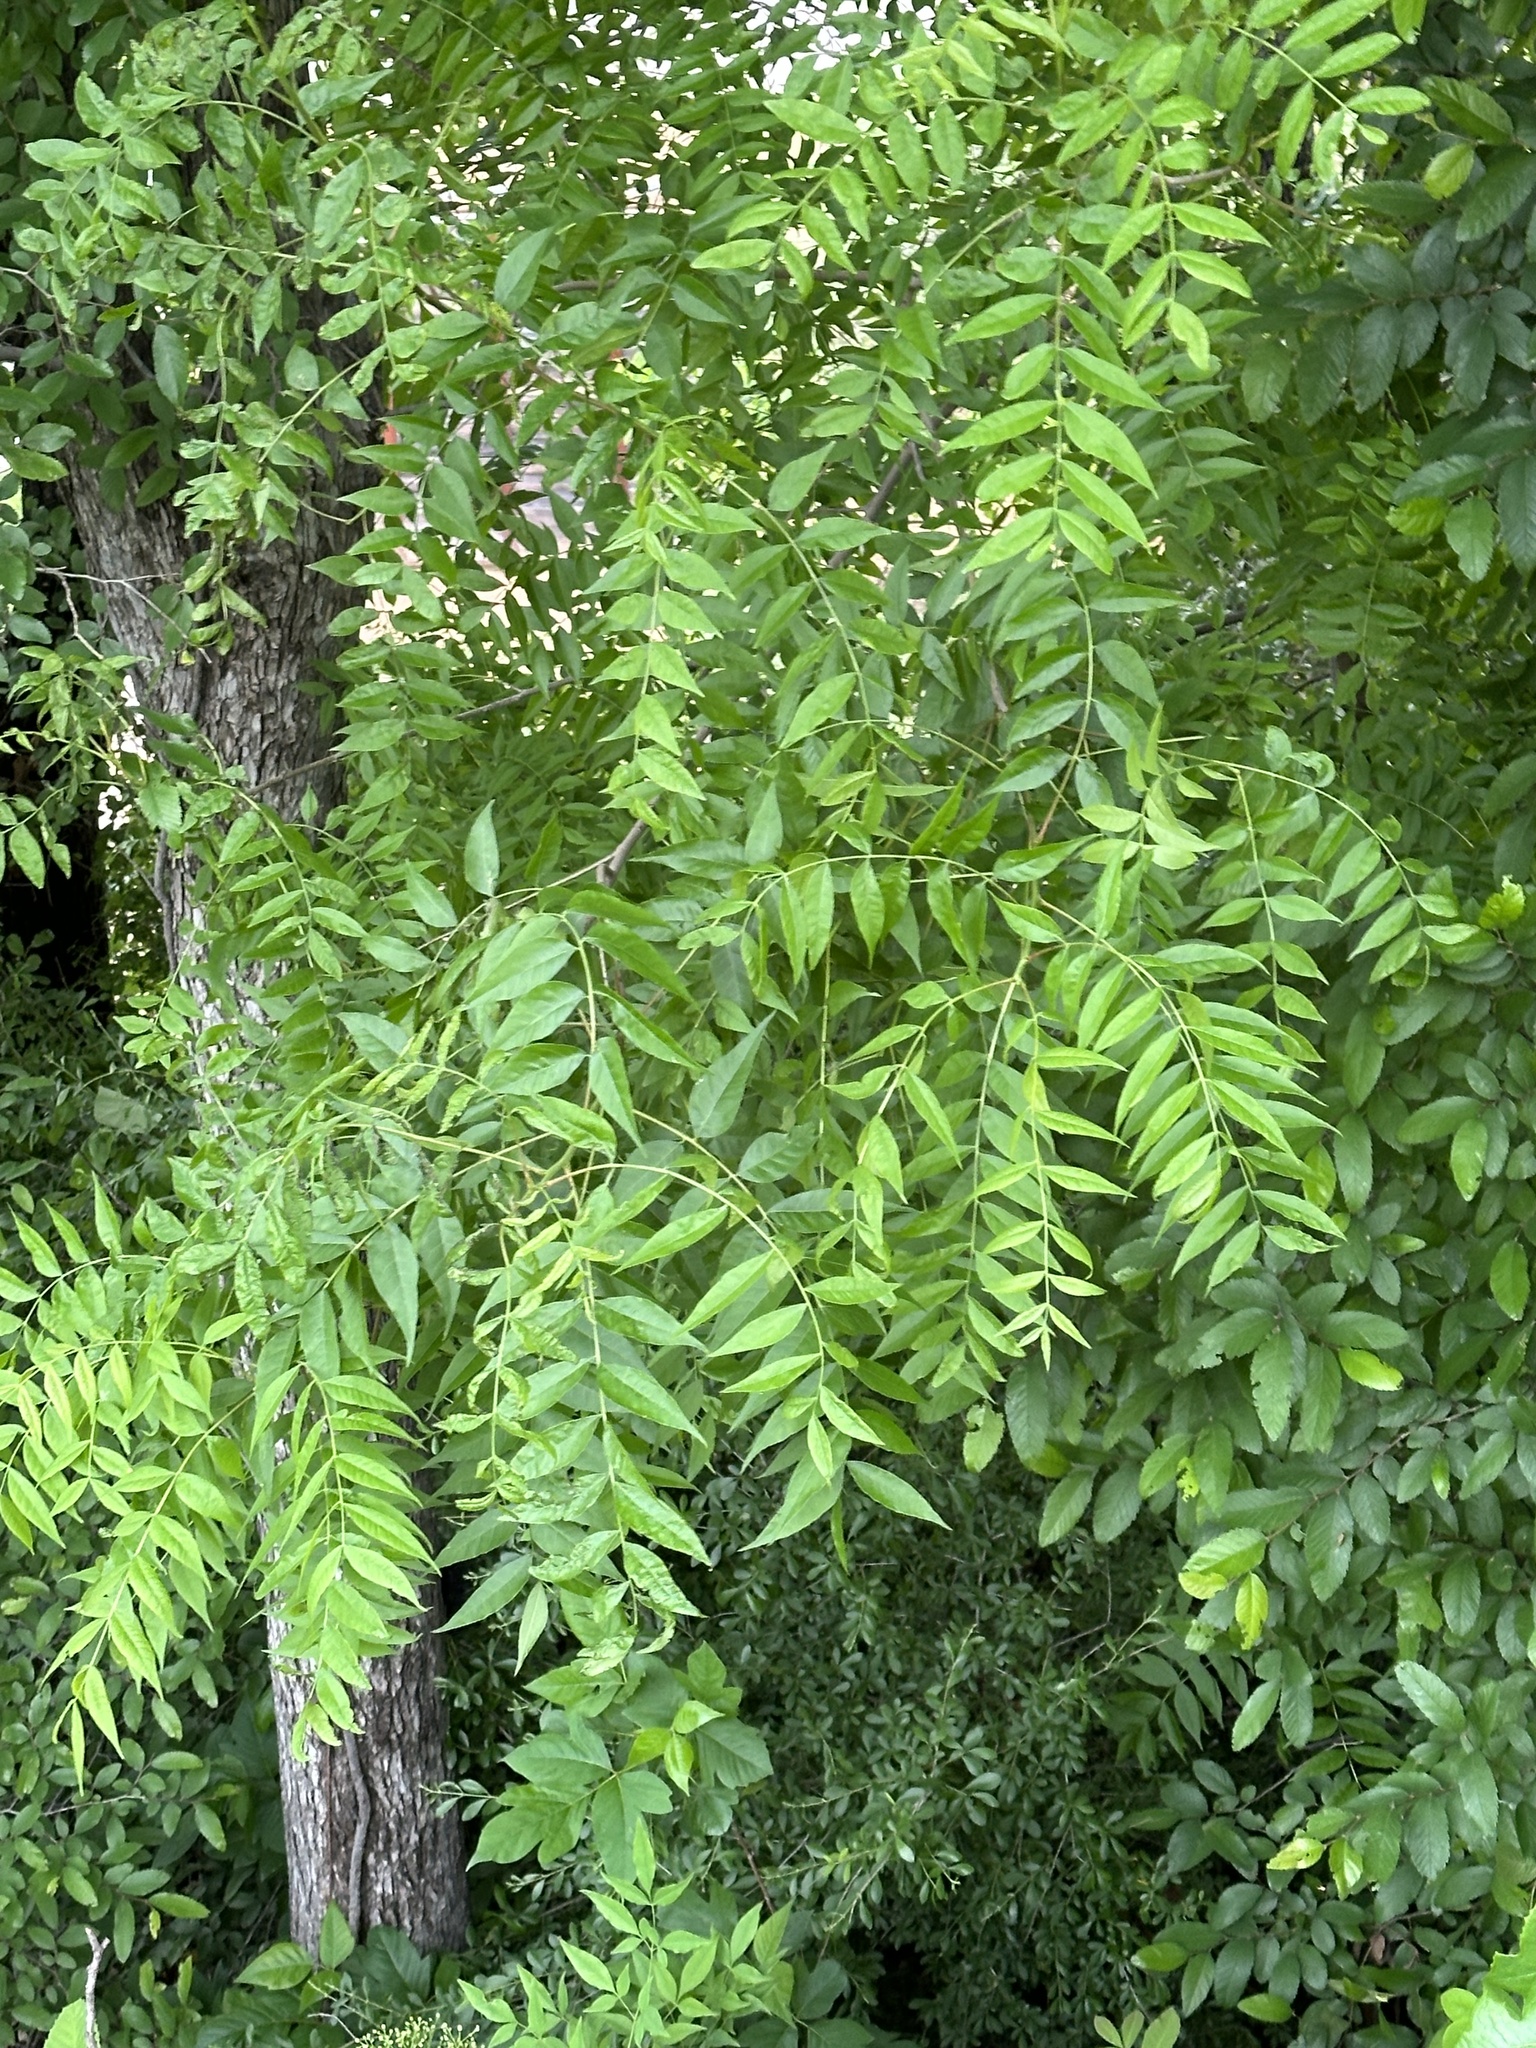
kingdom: Plantae
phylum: Tracheophyta
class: Magnoliopsida
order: Sapindales
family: Anacardiaceae
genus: Pistacia
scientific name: Pistacia chinensis
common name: Chinese pistache
